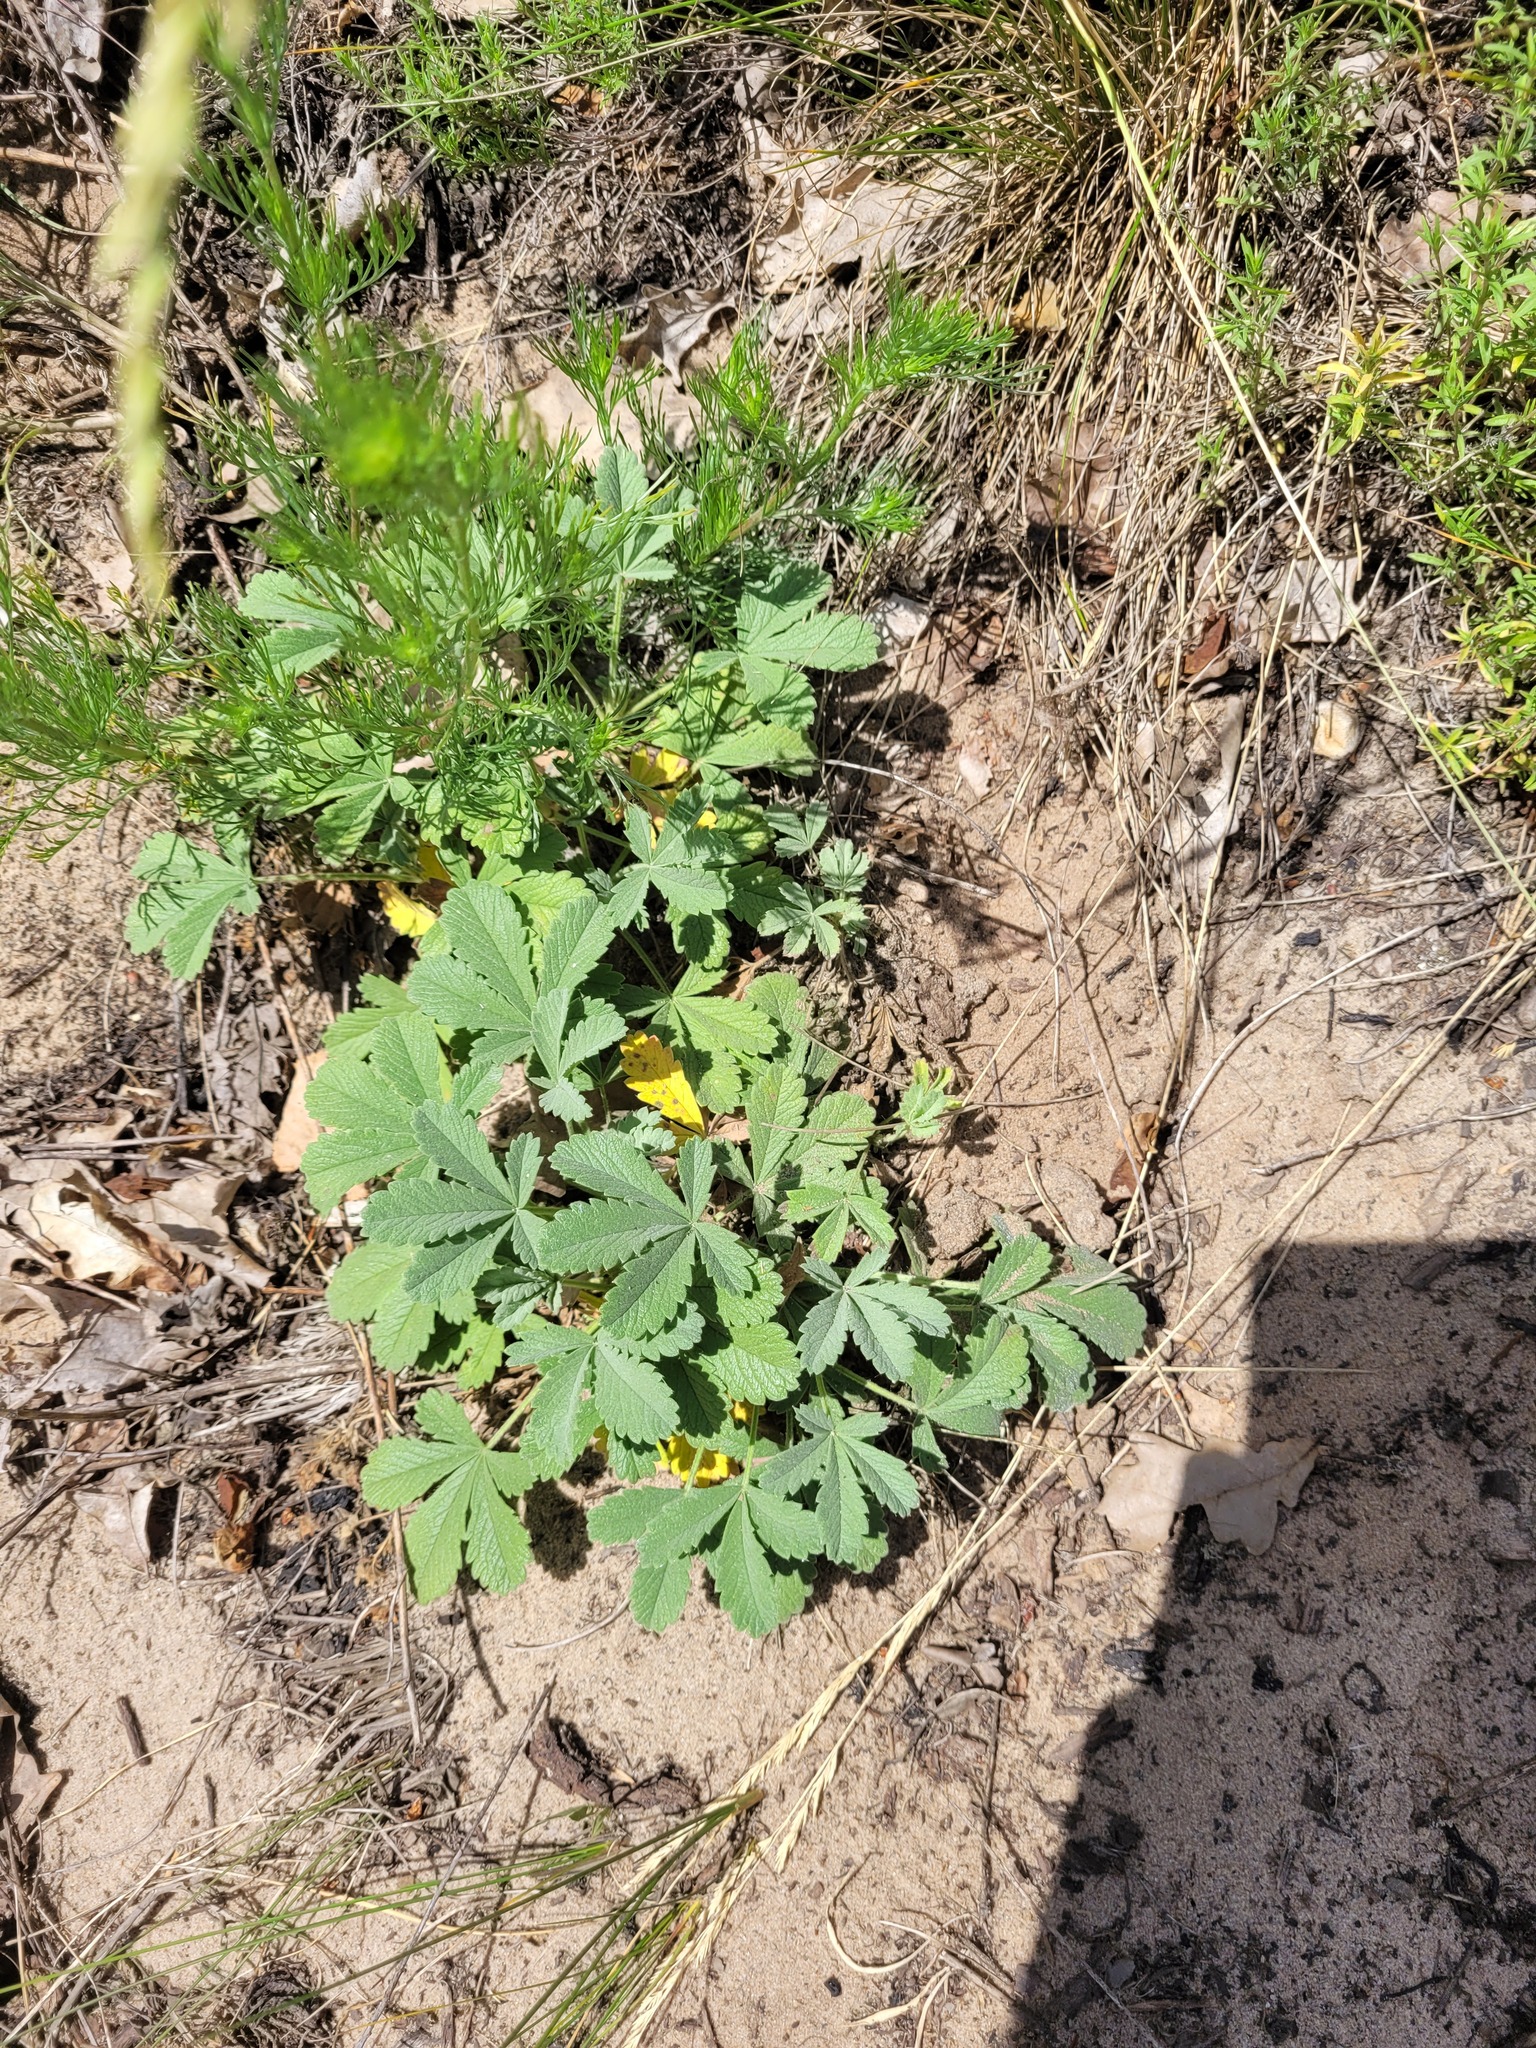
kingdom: Plantae
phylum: Tracheophyta
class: Magnoliopsida
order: Rosales
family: Rosaceae
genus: Potentilla
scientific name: Potentilla incana
